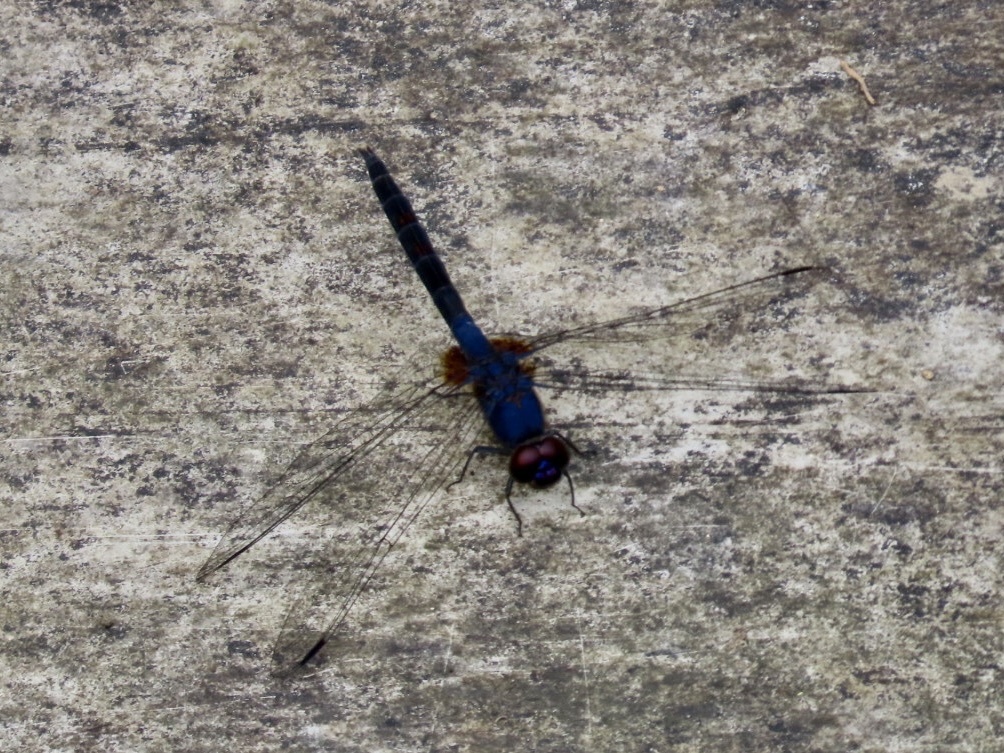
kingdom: Animalia
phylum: Arthropoda
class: Insecta
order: Odonata
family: Libellulidae
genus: Trithemis
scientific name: Trithemis festiva
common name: Indigo dropwing
